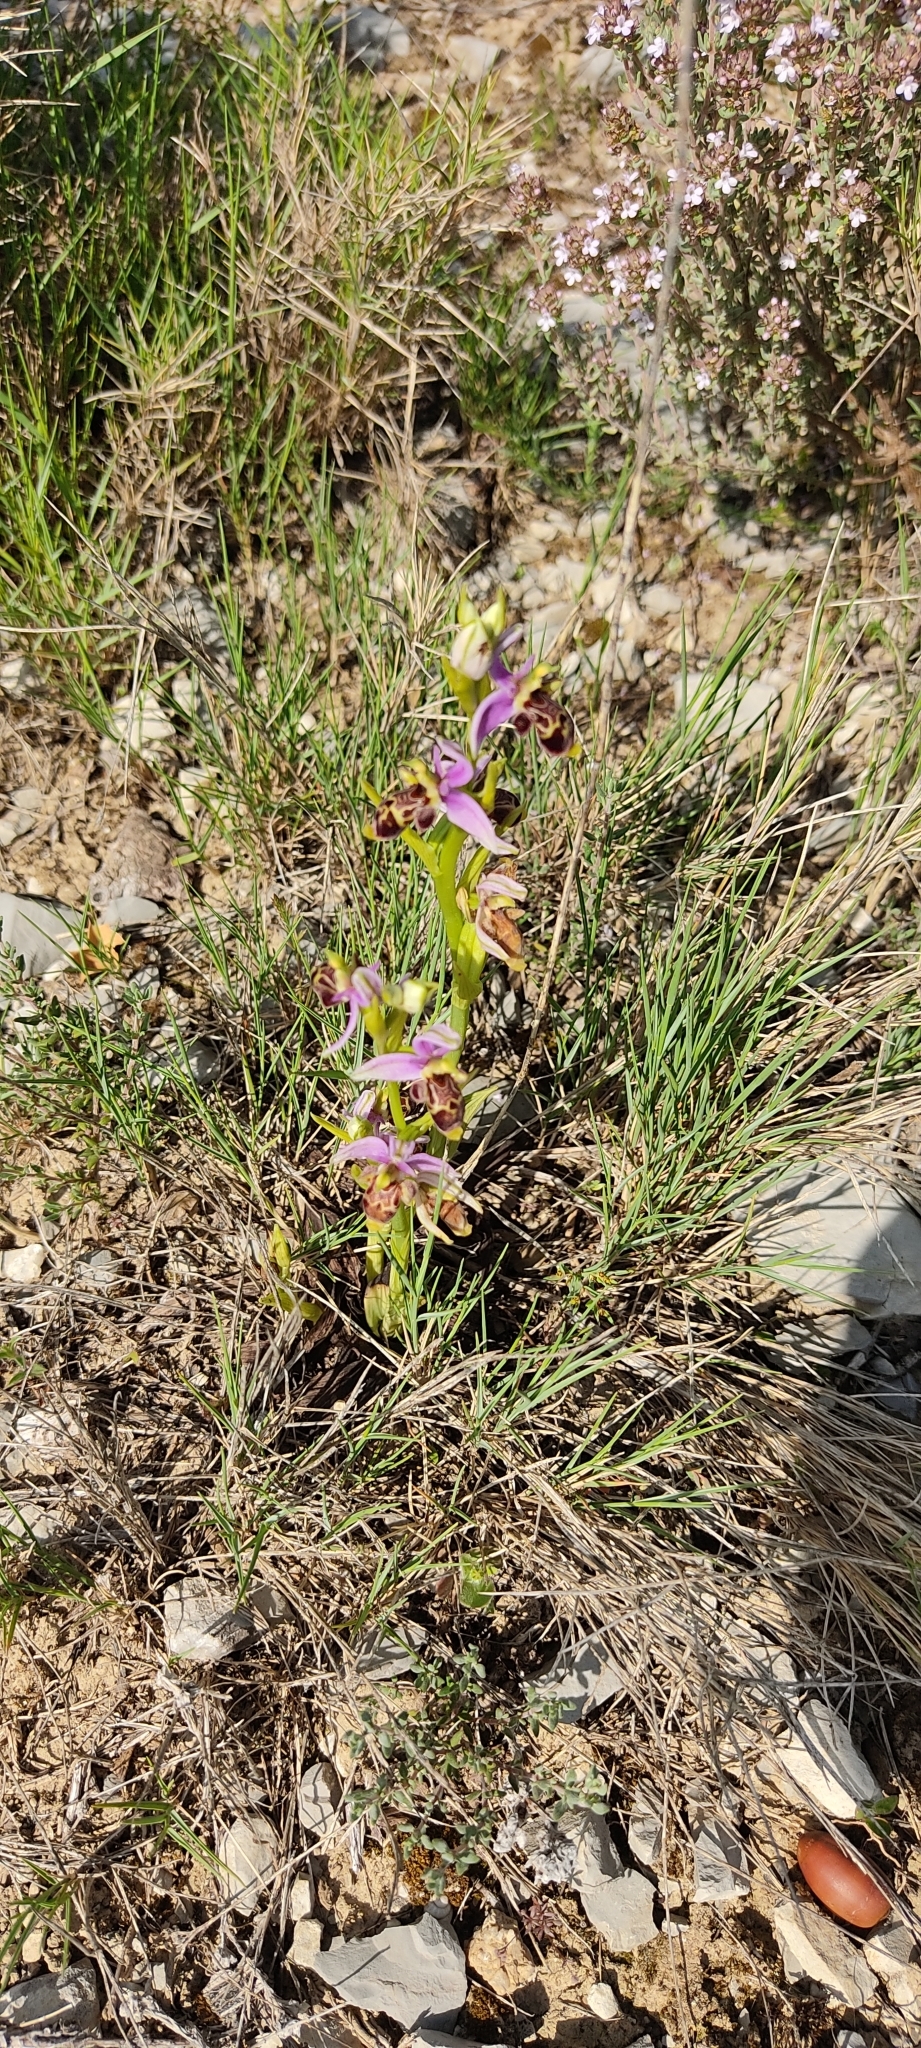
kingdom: Plantae
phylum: Tracheophyta
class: Liliopsida
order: Asparagales
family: Orchidaceae
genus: Ophrys
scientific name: Ophrys scolopax
